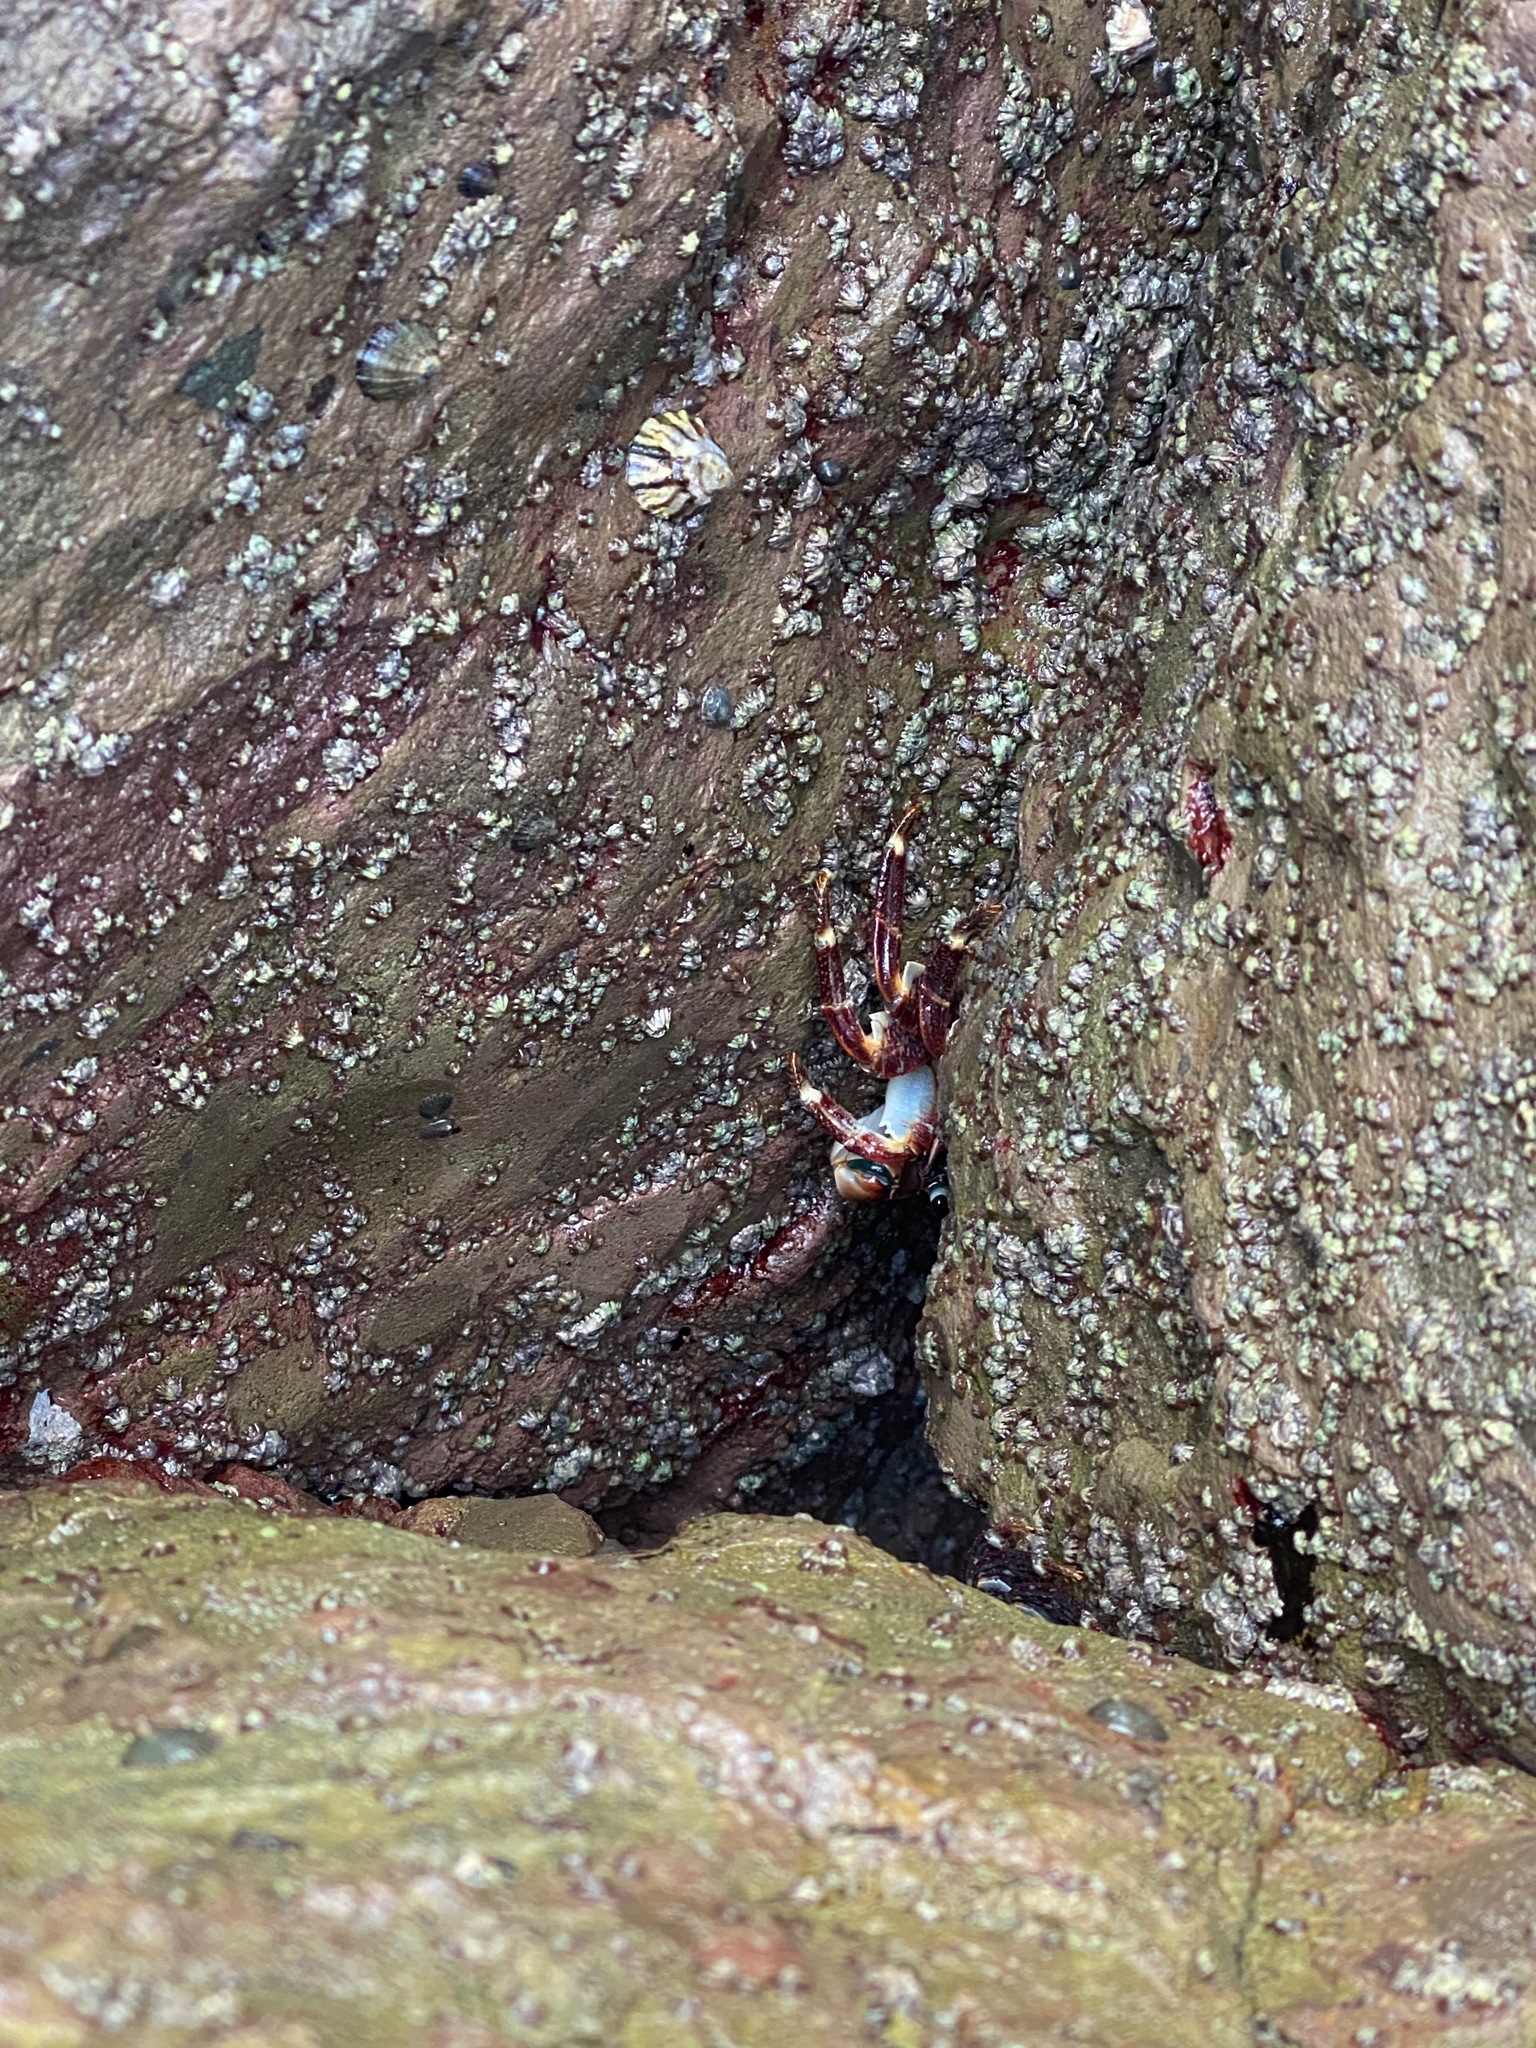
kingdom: Animalia
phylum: Arthropoda
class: Malacostraca
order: Decapoda
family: Grapsidae
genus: Pachygrapsus
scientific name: Pachygrapsus crassipes
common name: Striped shore crab
